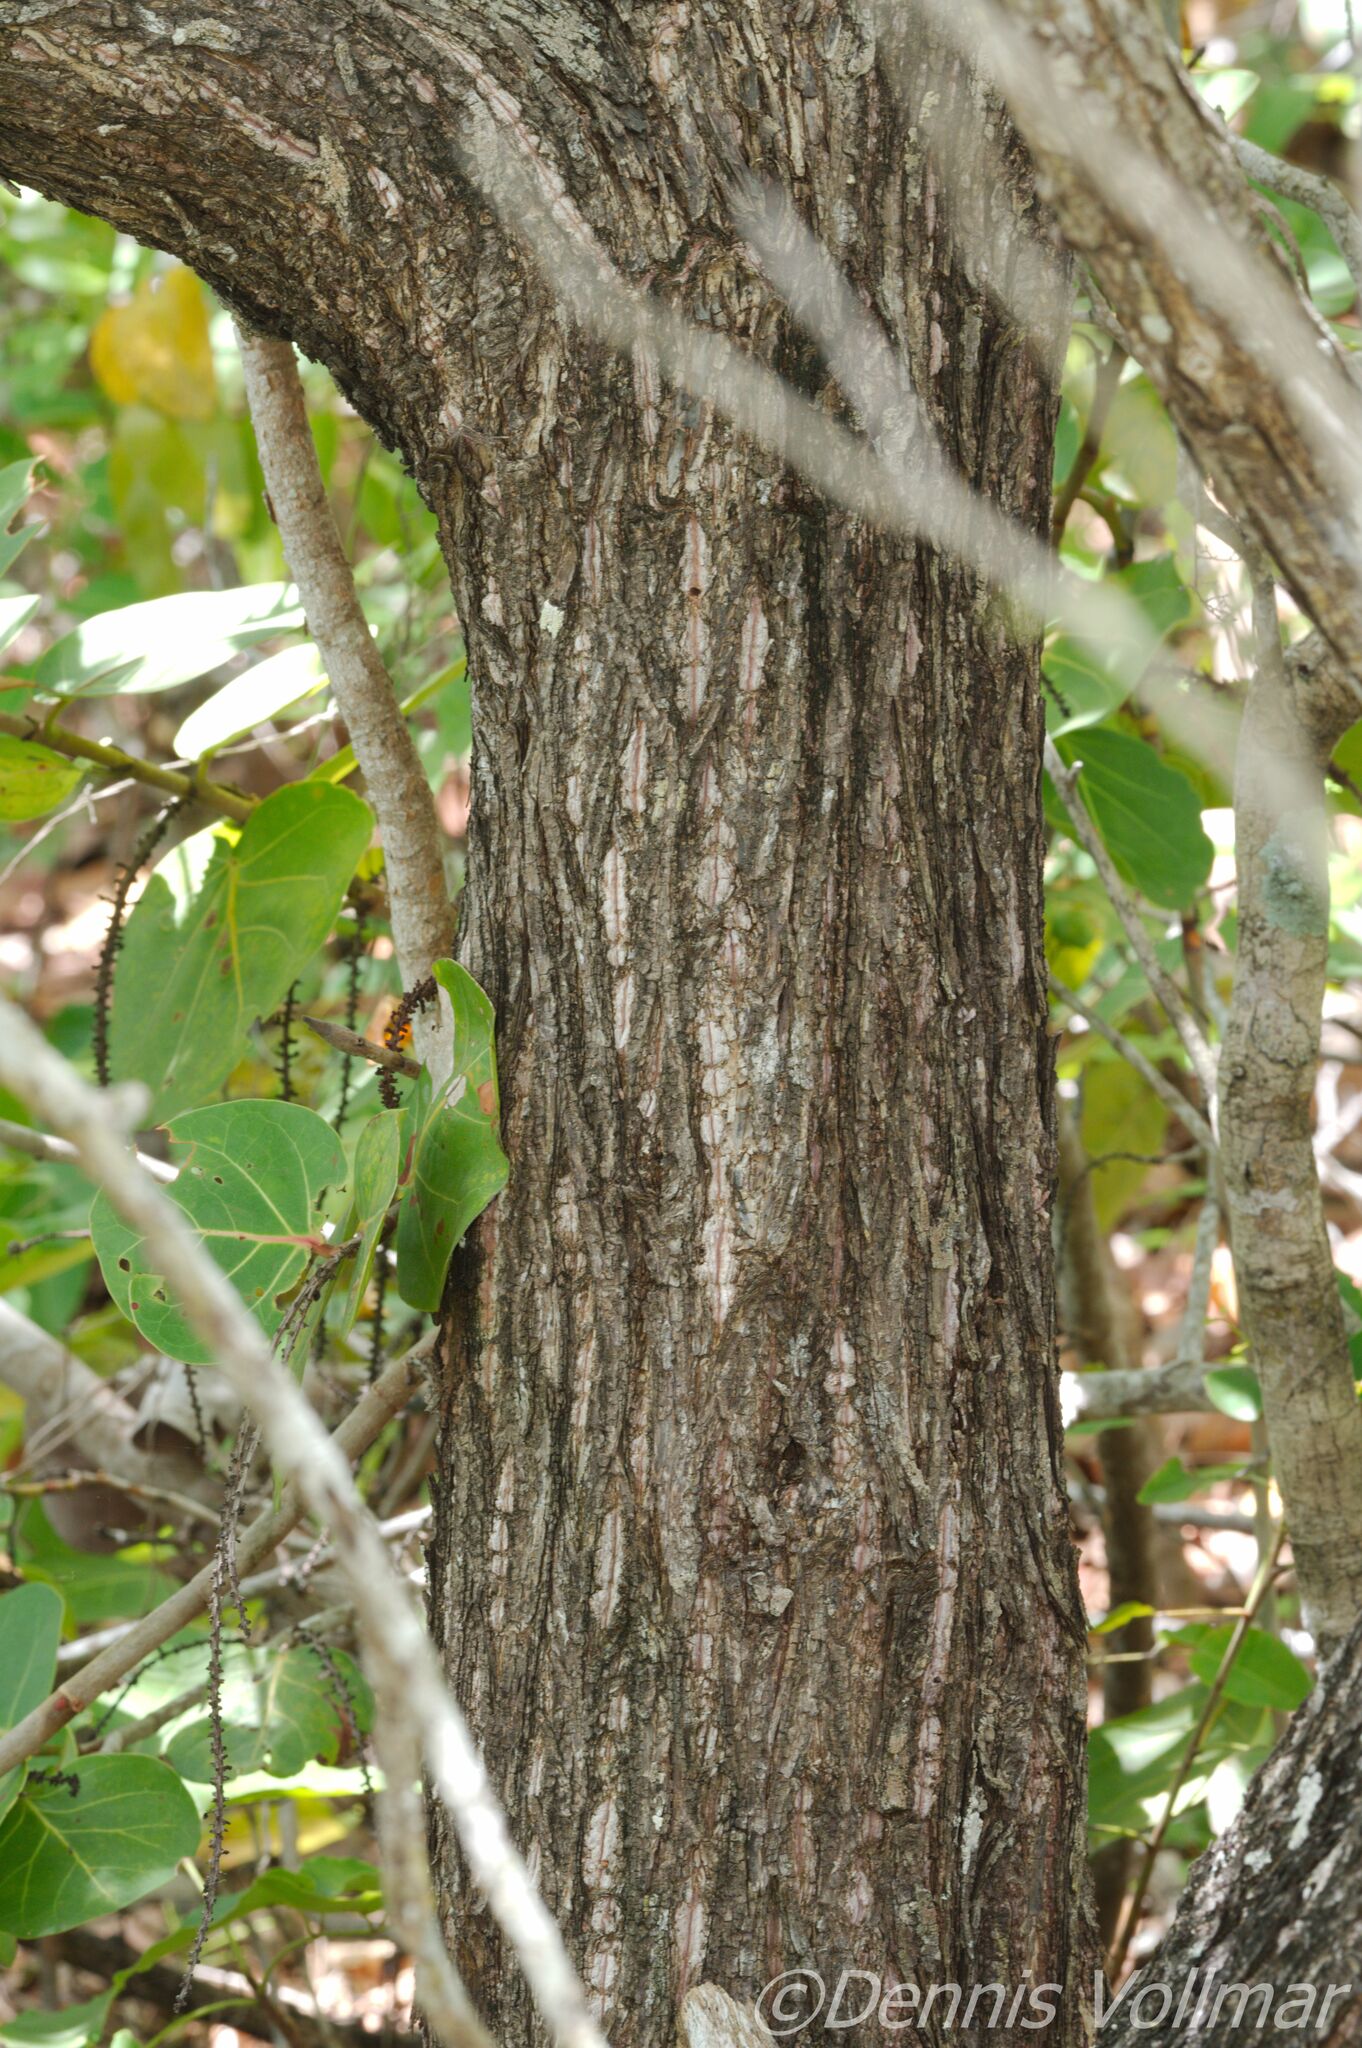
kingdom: Plantae
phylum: Tracheophyta
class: Magnoliopsida
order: Myrtales
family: Combretaceae
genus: Conocarpus
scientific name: Conocarpus erectus
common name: Button mangrove
